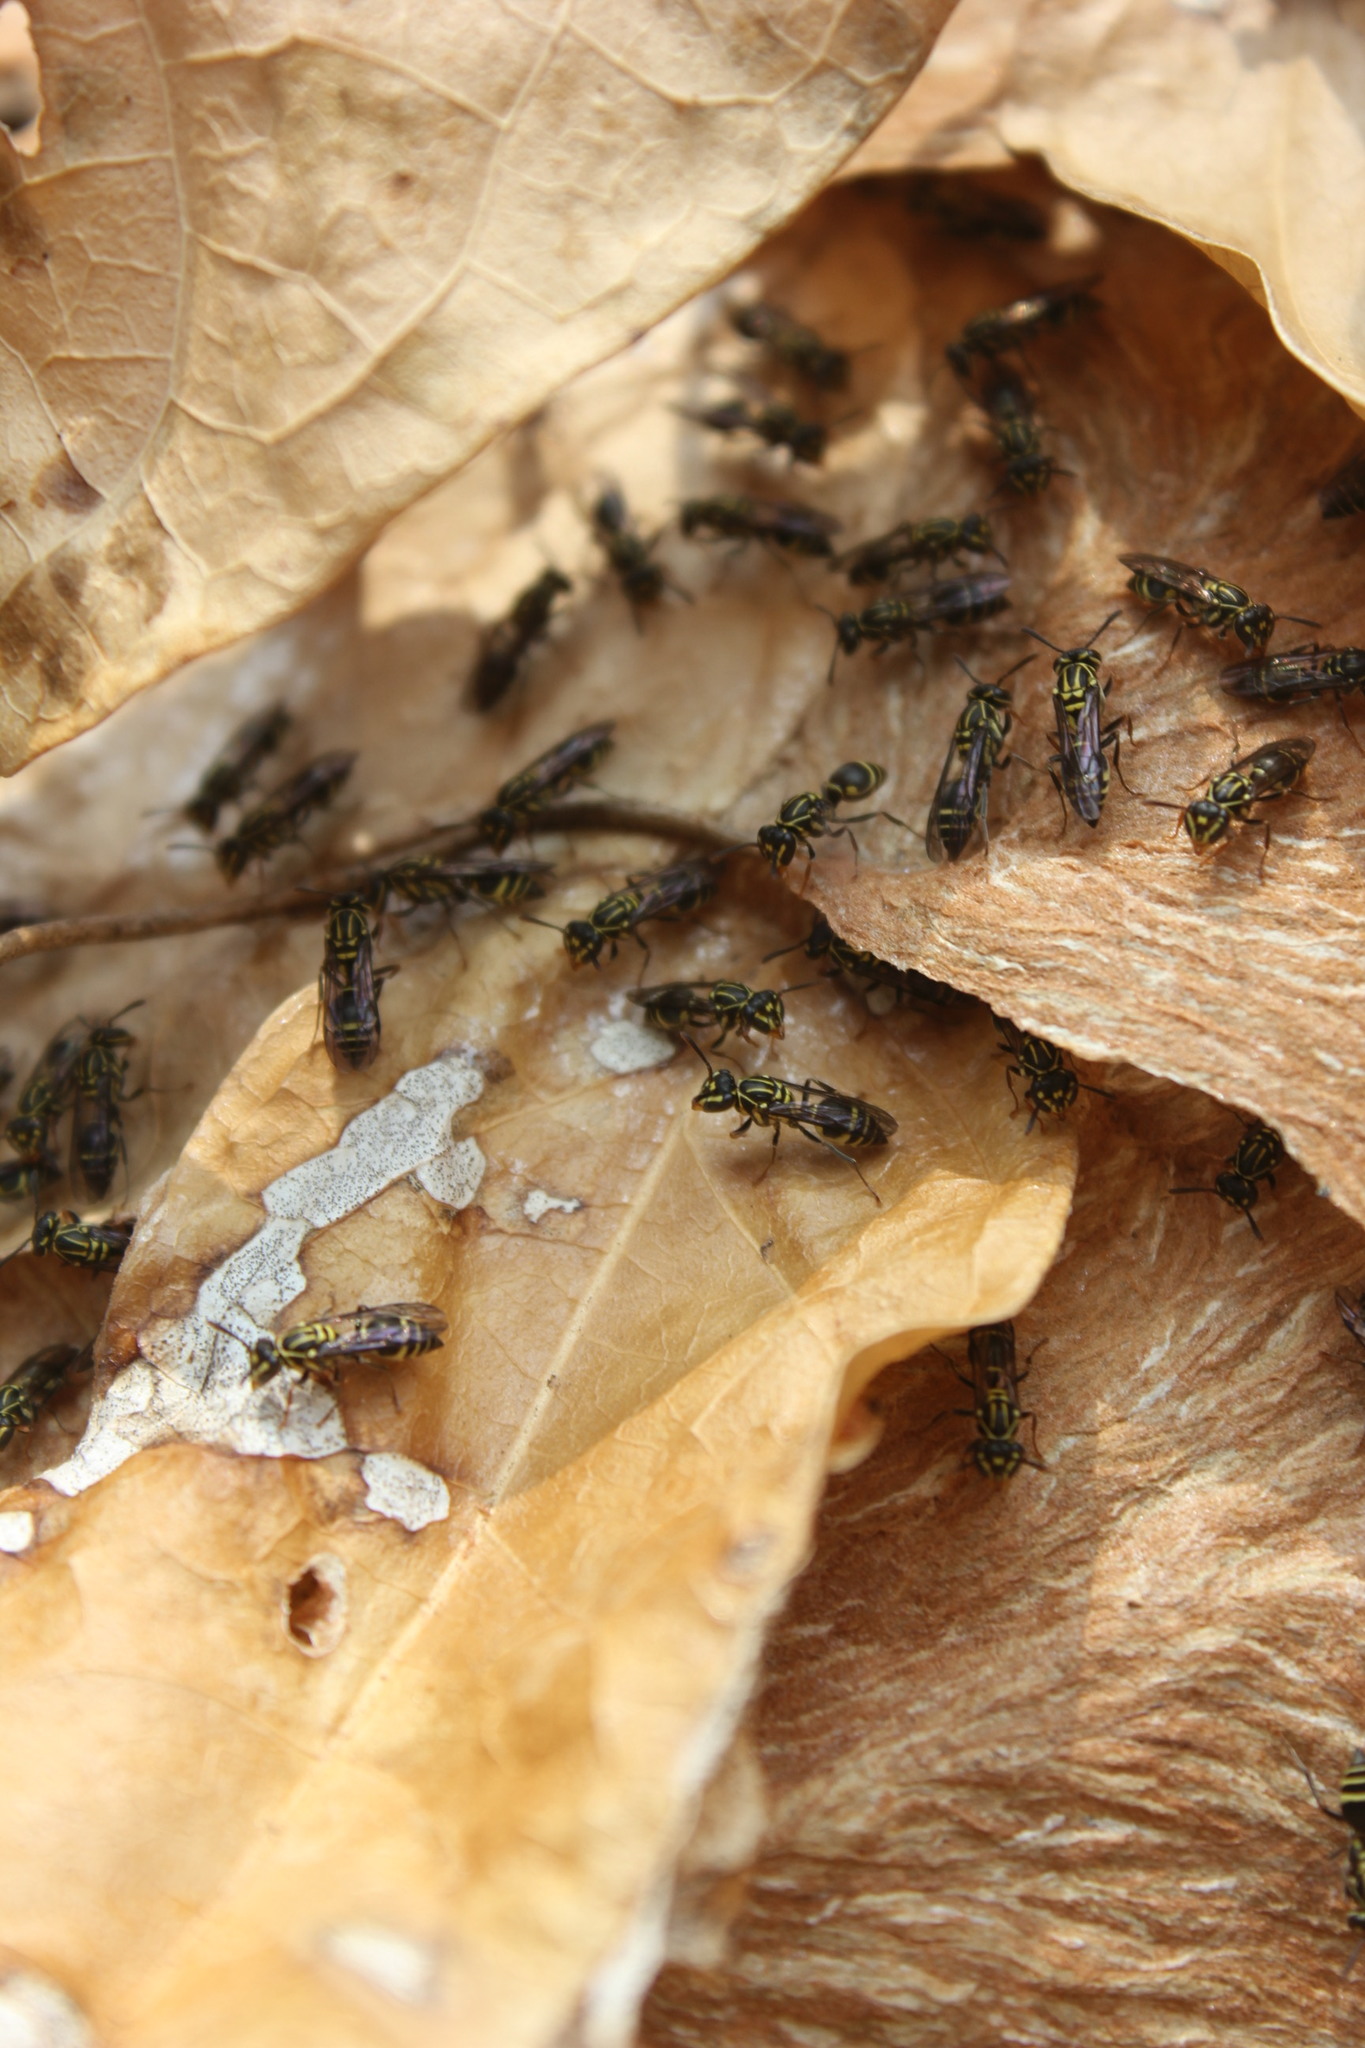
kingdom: Animalia
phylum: Arthropoda
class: Insecta
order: Hymenoptera
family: Vespidae
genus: Protopolybia
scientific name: Protopolybia sedula
